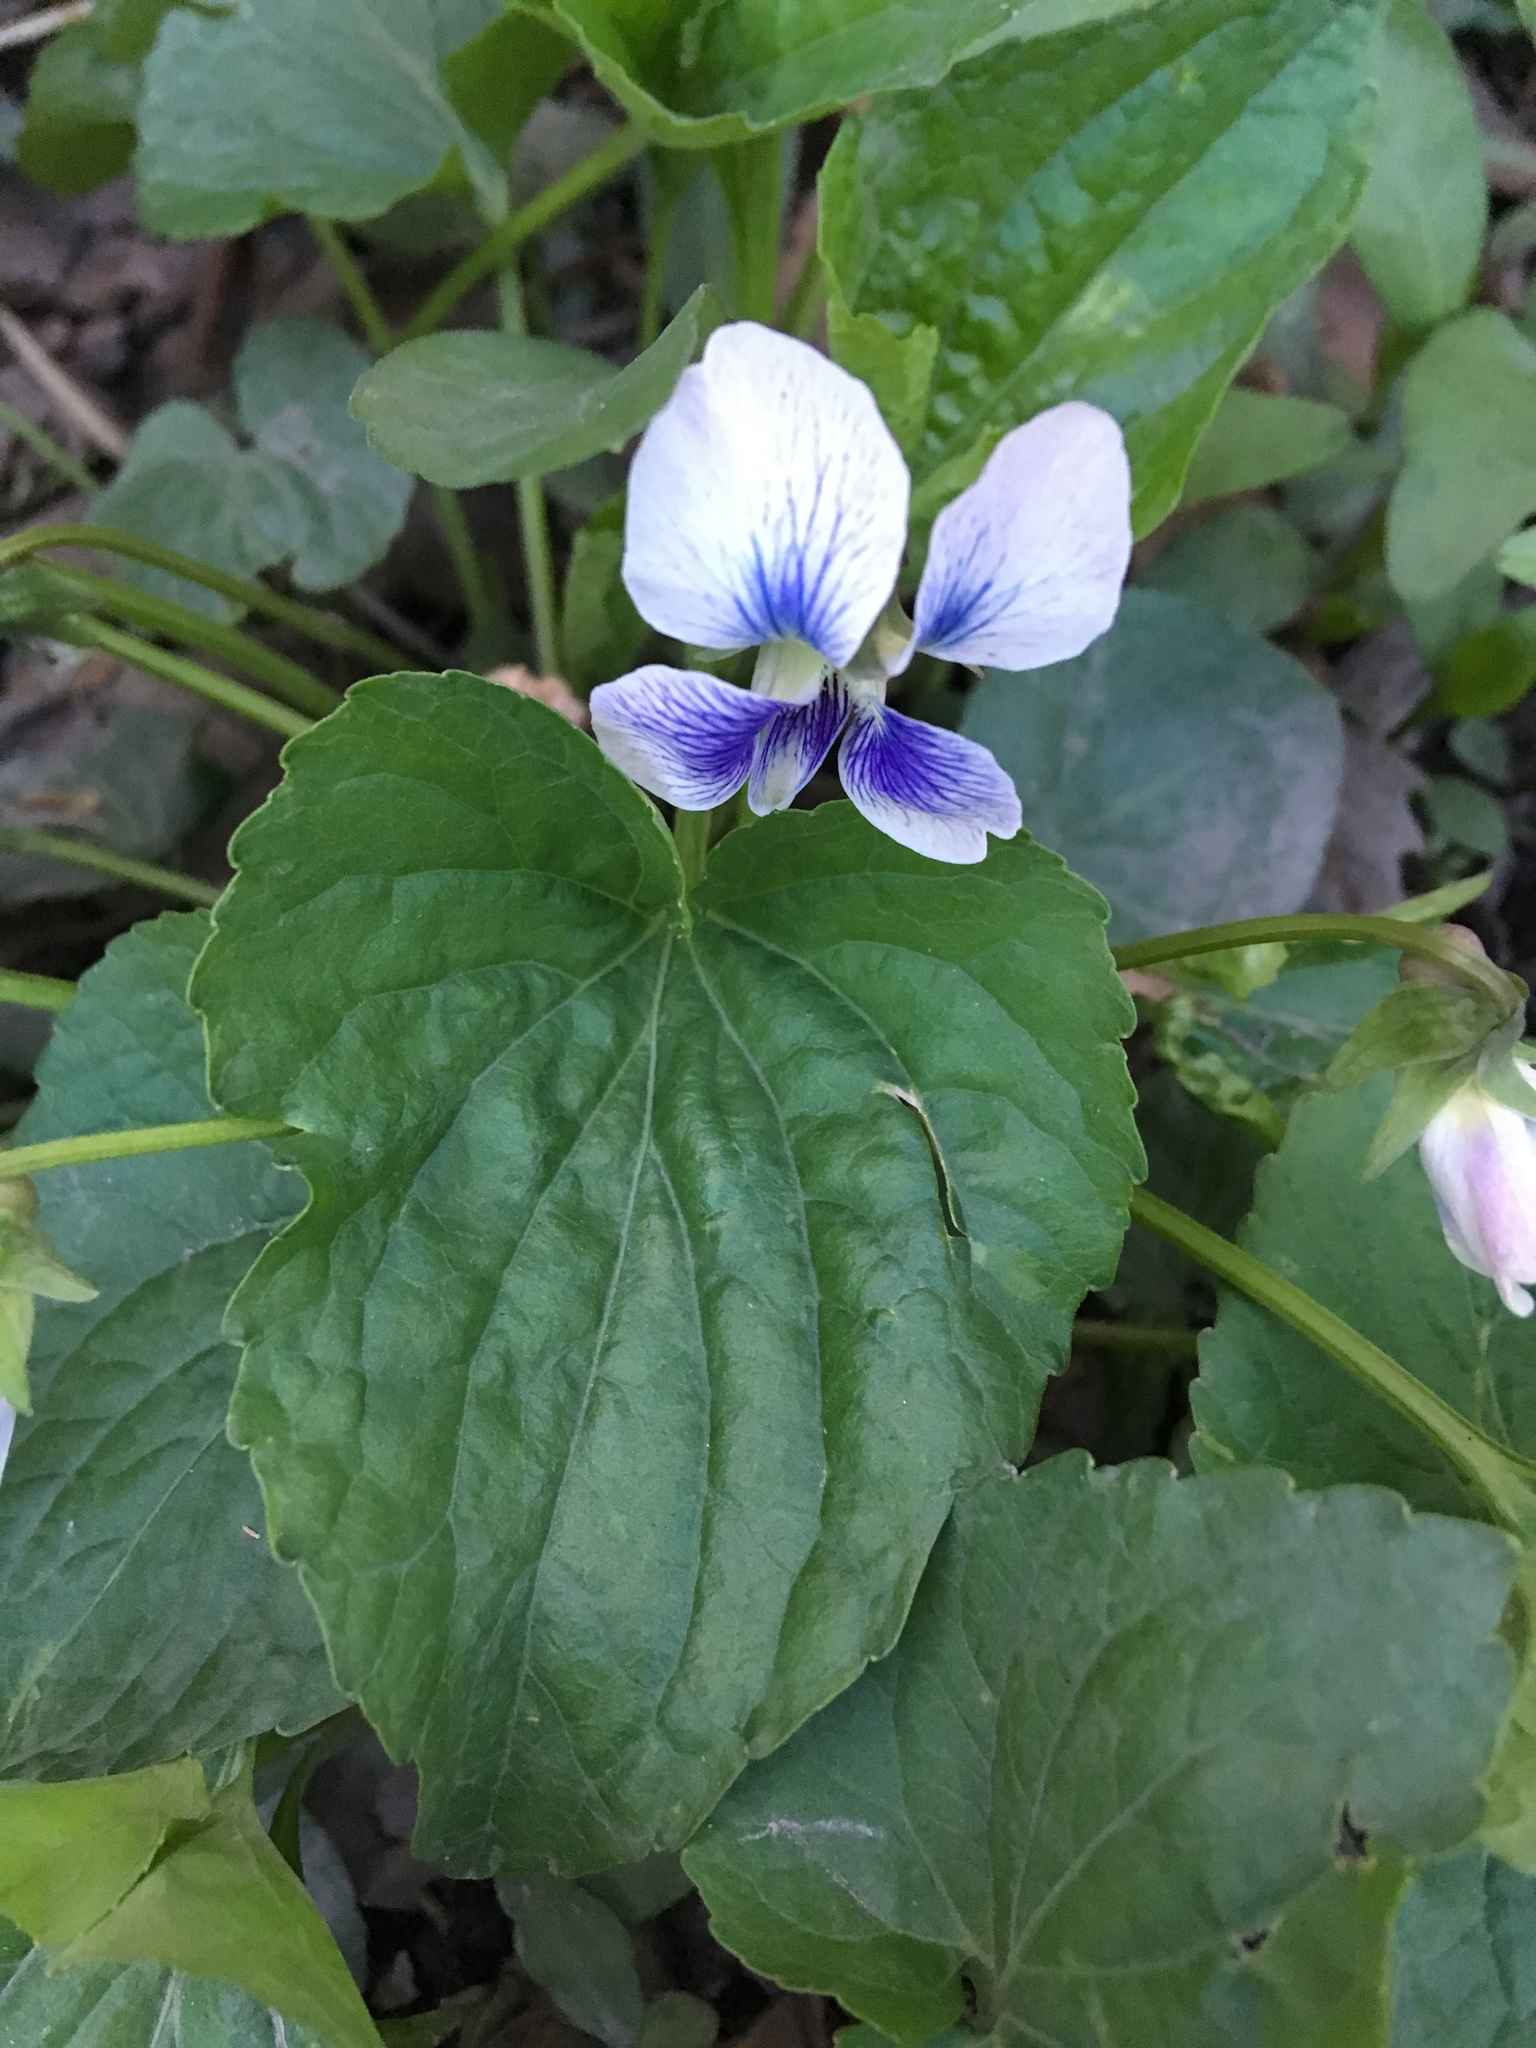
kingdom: Plantae
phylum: Tracheophyta
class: Magnoliopsida
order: Malpighiales
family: Violaceae
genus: Viola
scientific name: Viola sororia
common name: Dooryard violet
